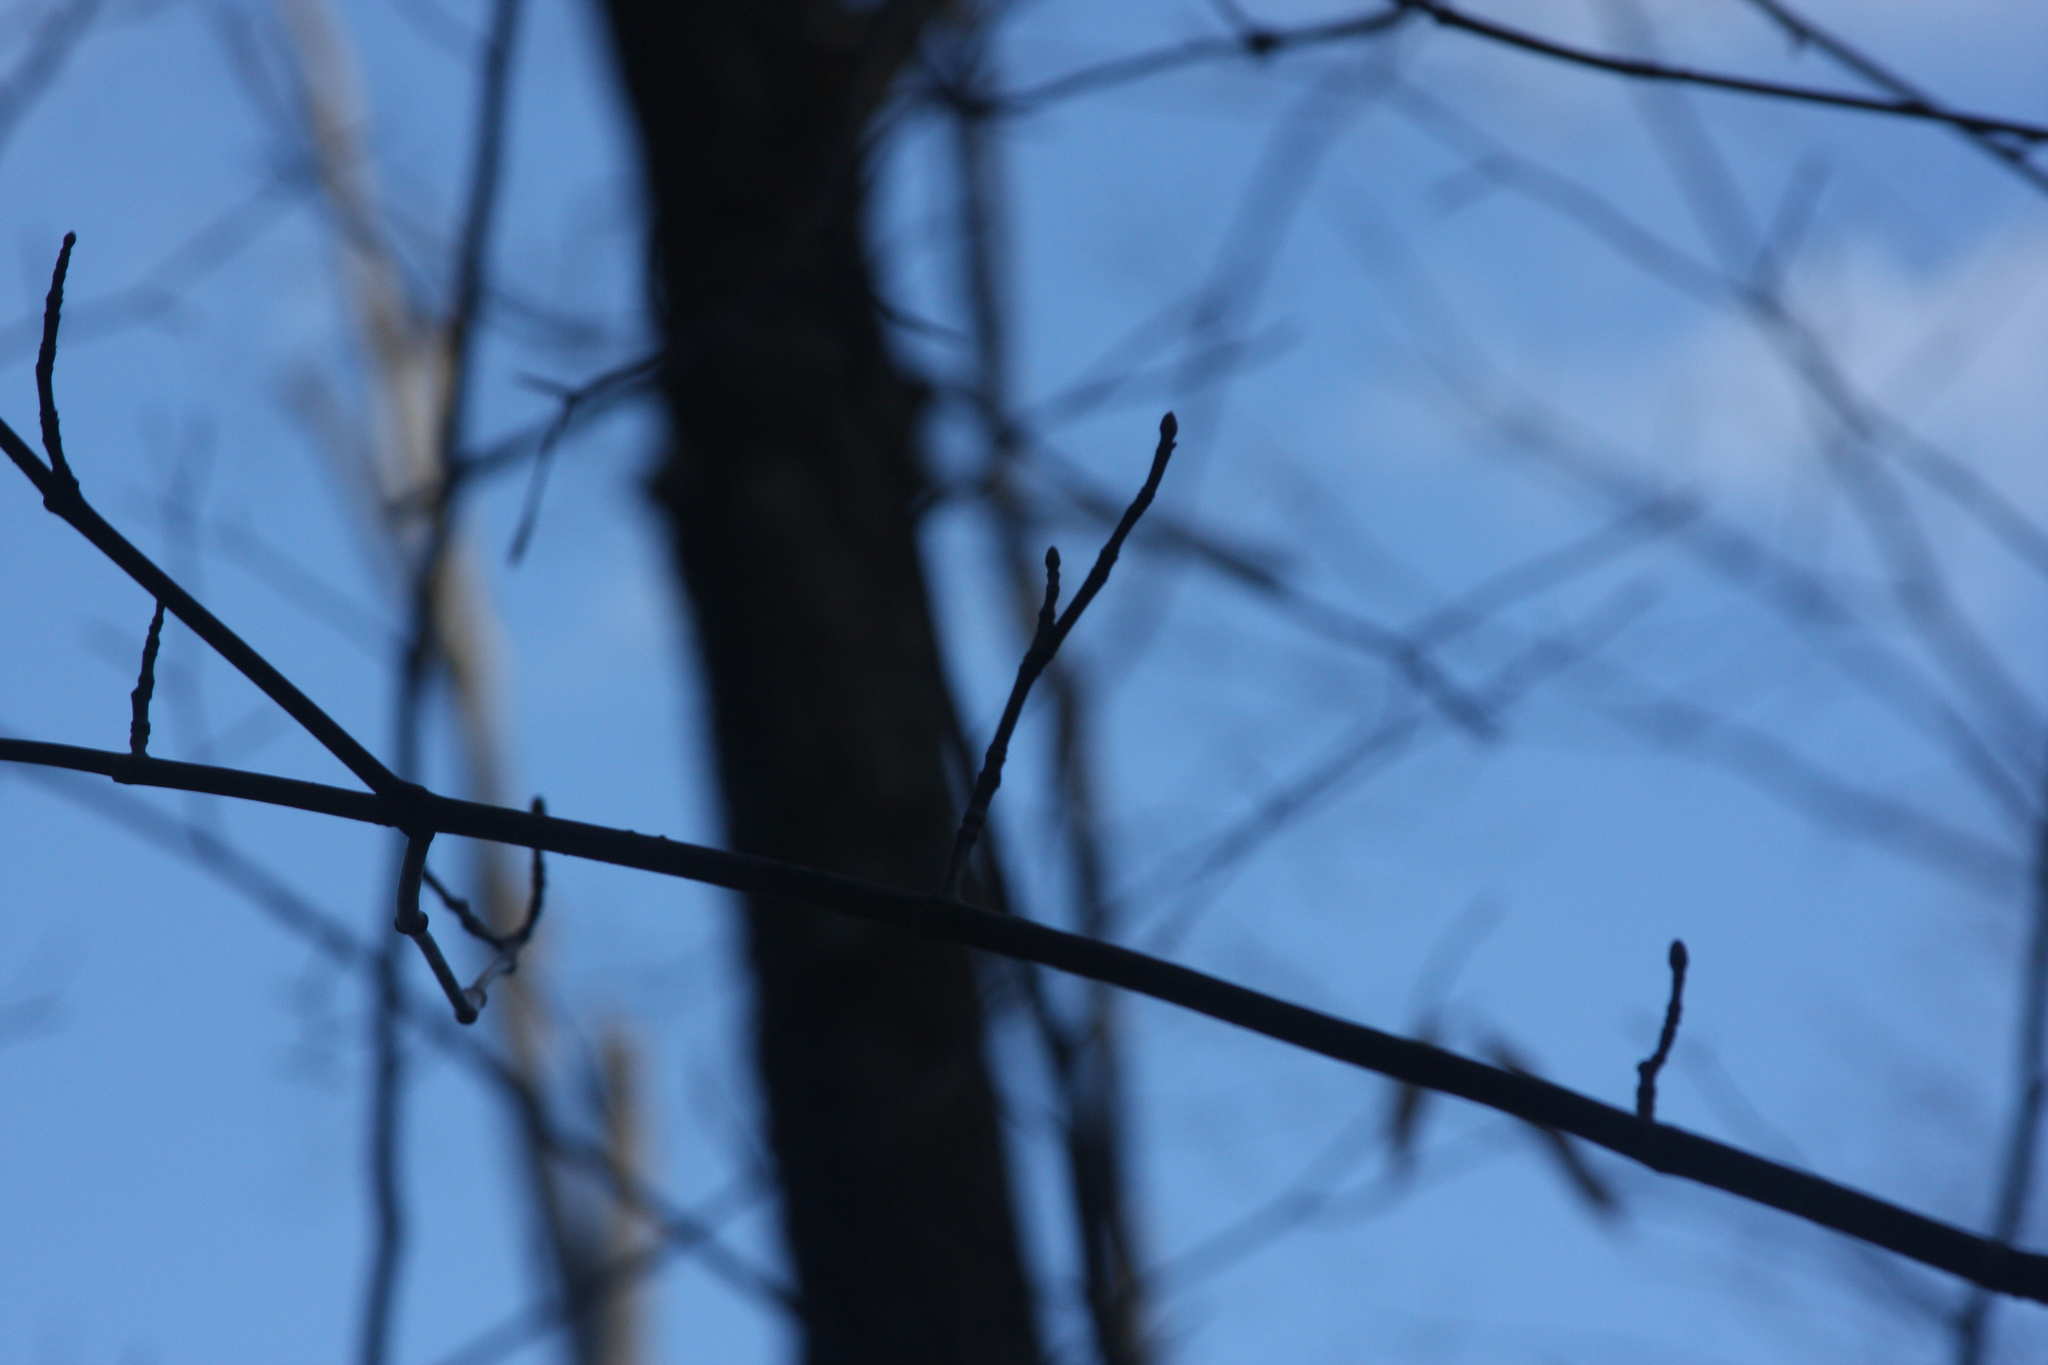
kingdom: Plantae
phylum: Tracheophyta
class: Magnoliopsida
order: Sapindales
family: Sapindaceae
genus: Acer
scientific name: Acer pensylvanicum
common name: Moosewood
